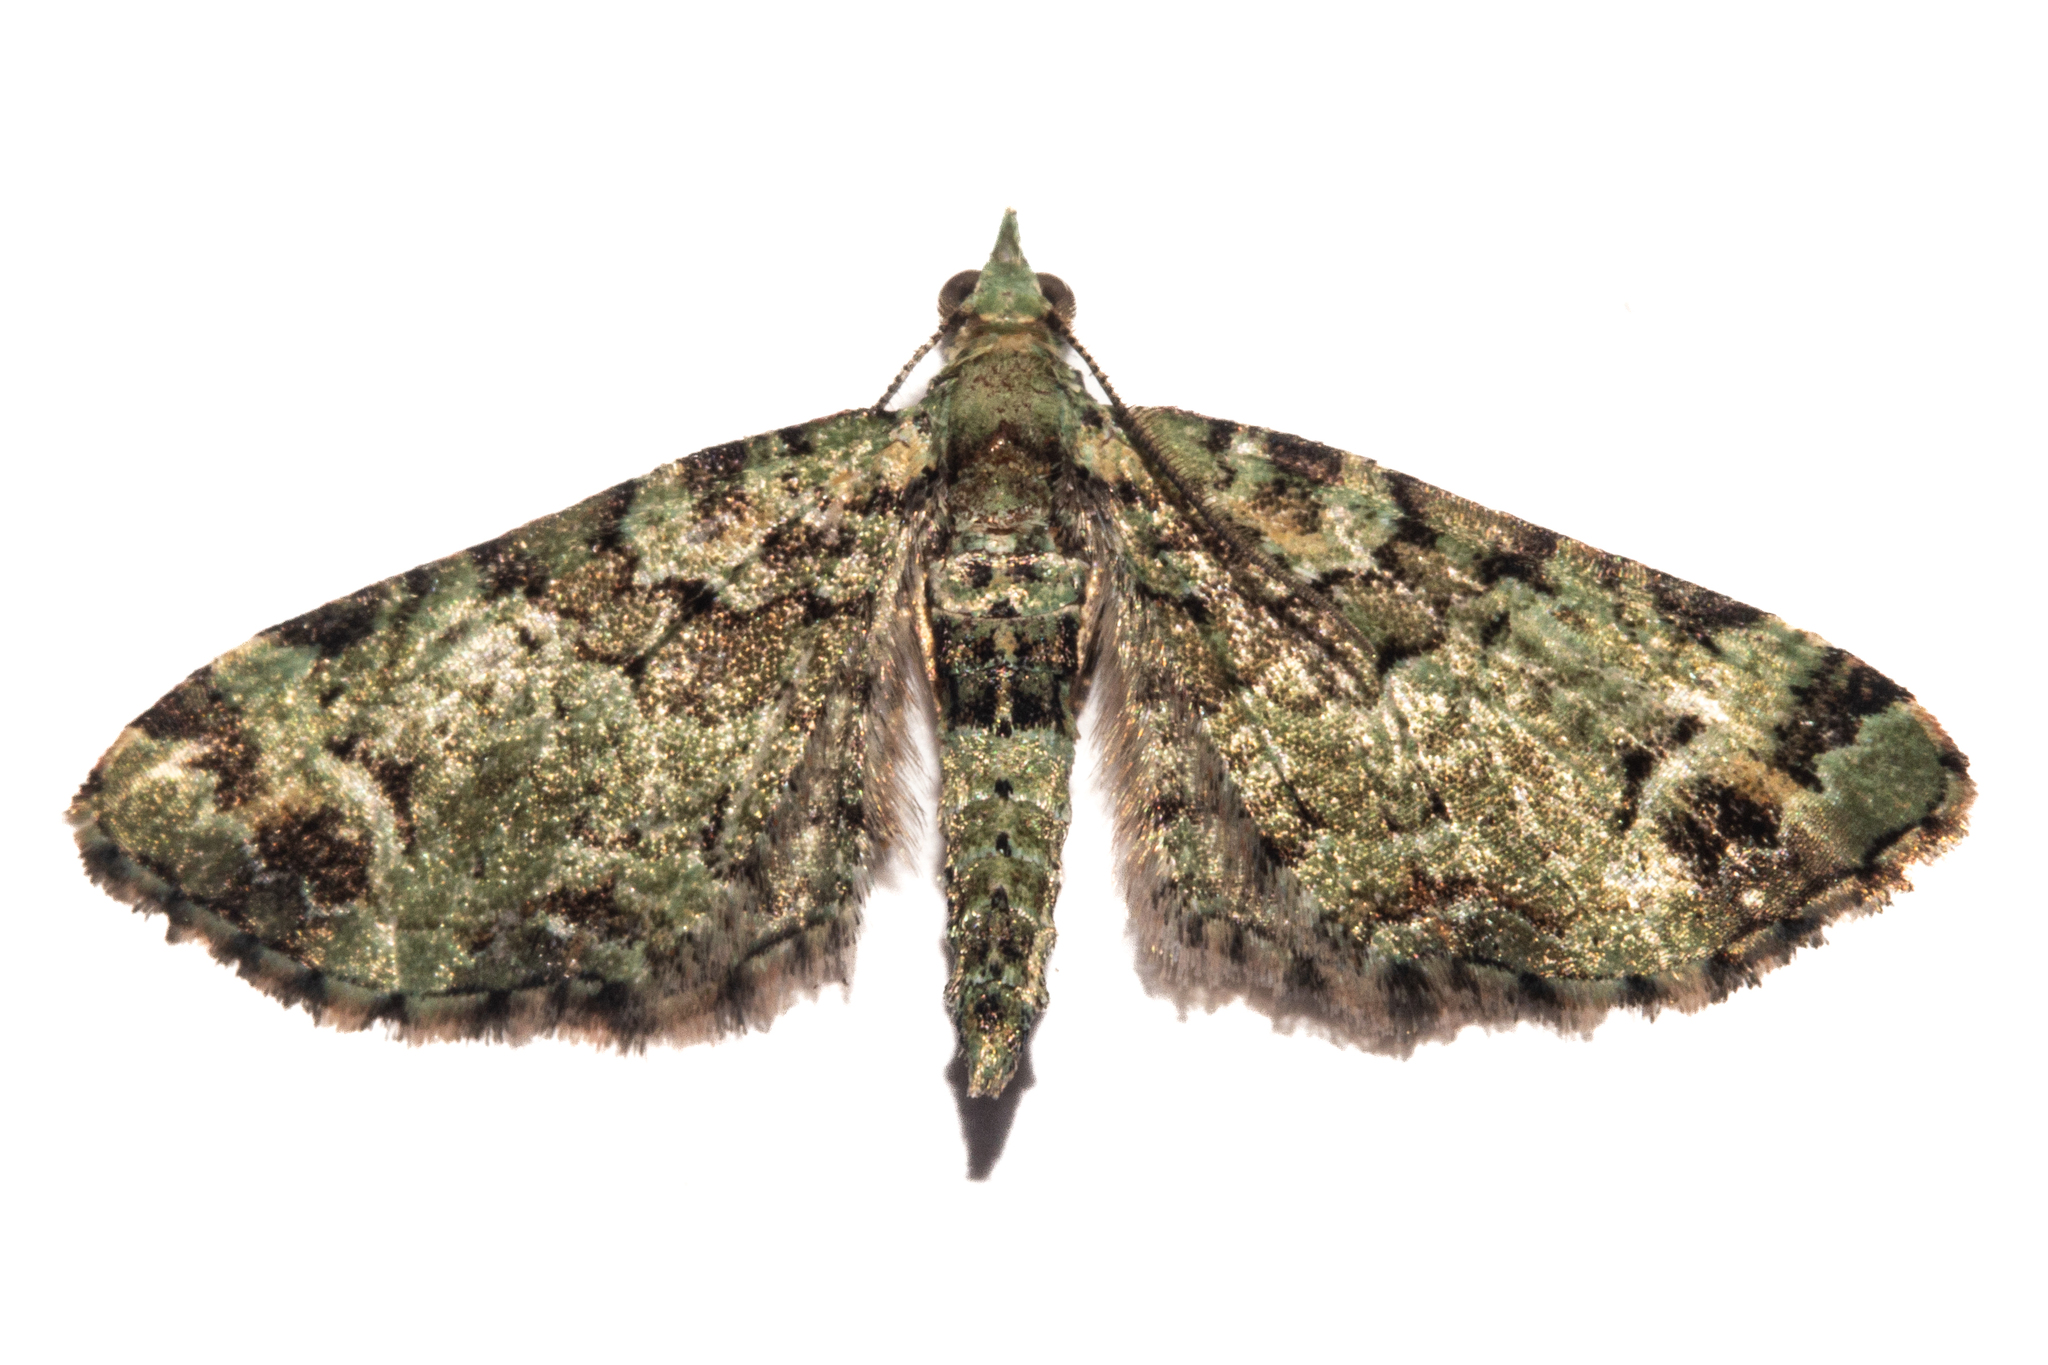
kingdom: Animalia
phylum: Arthropoda
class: Insecta
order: Lepidoptera
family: Geometridae
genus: Pasiphila
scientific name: Pasiphila bilineolata
